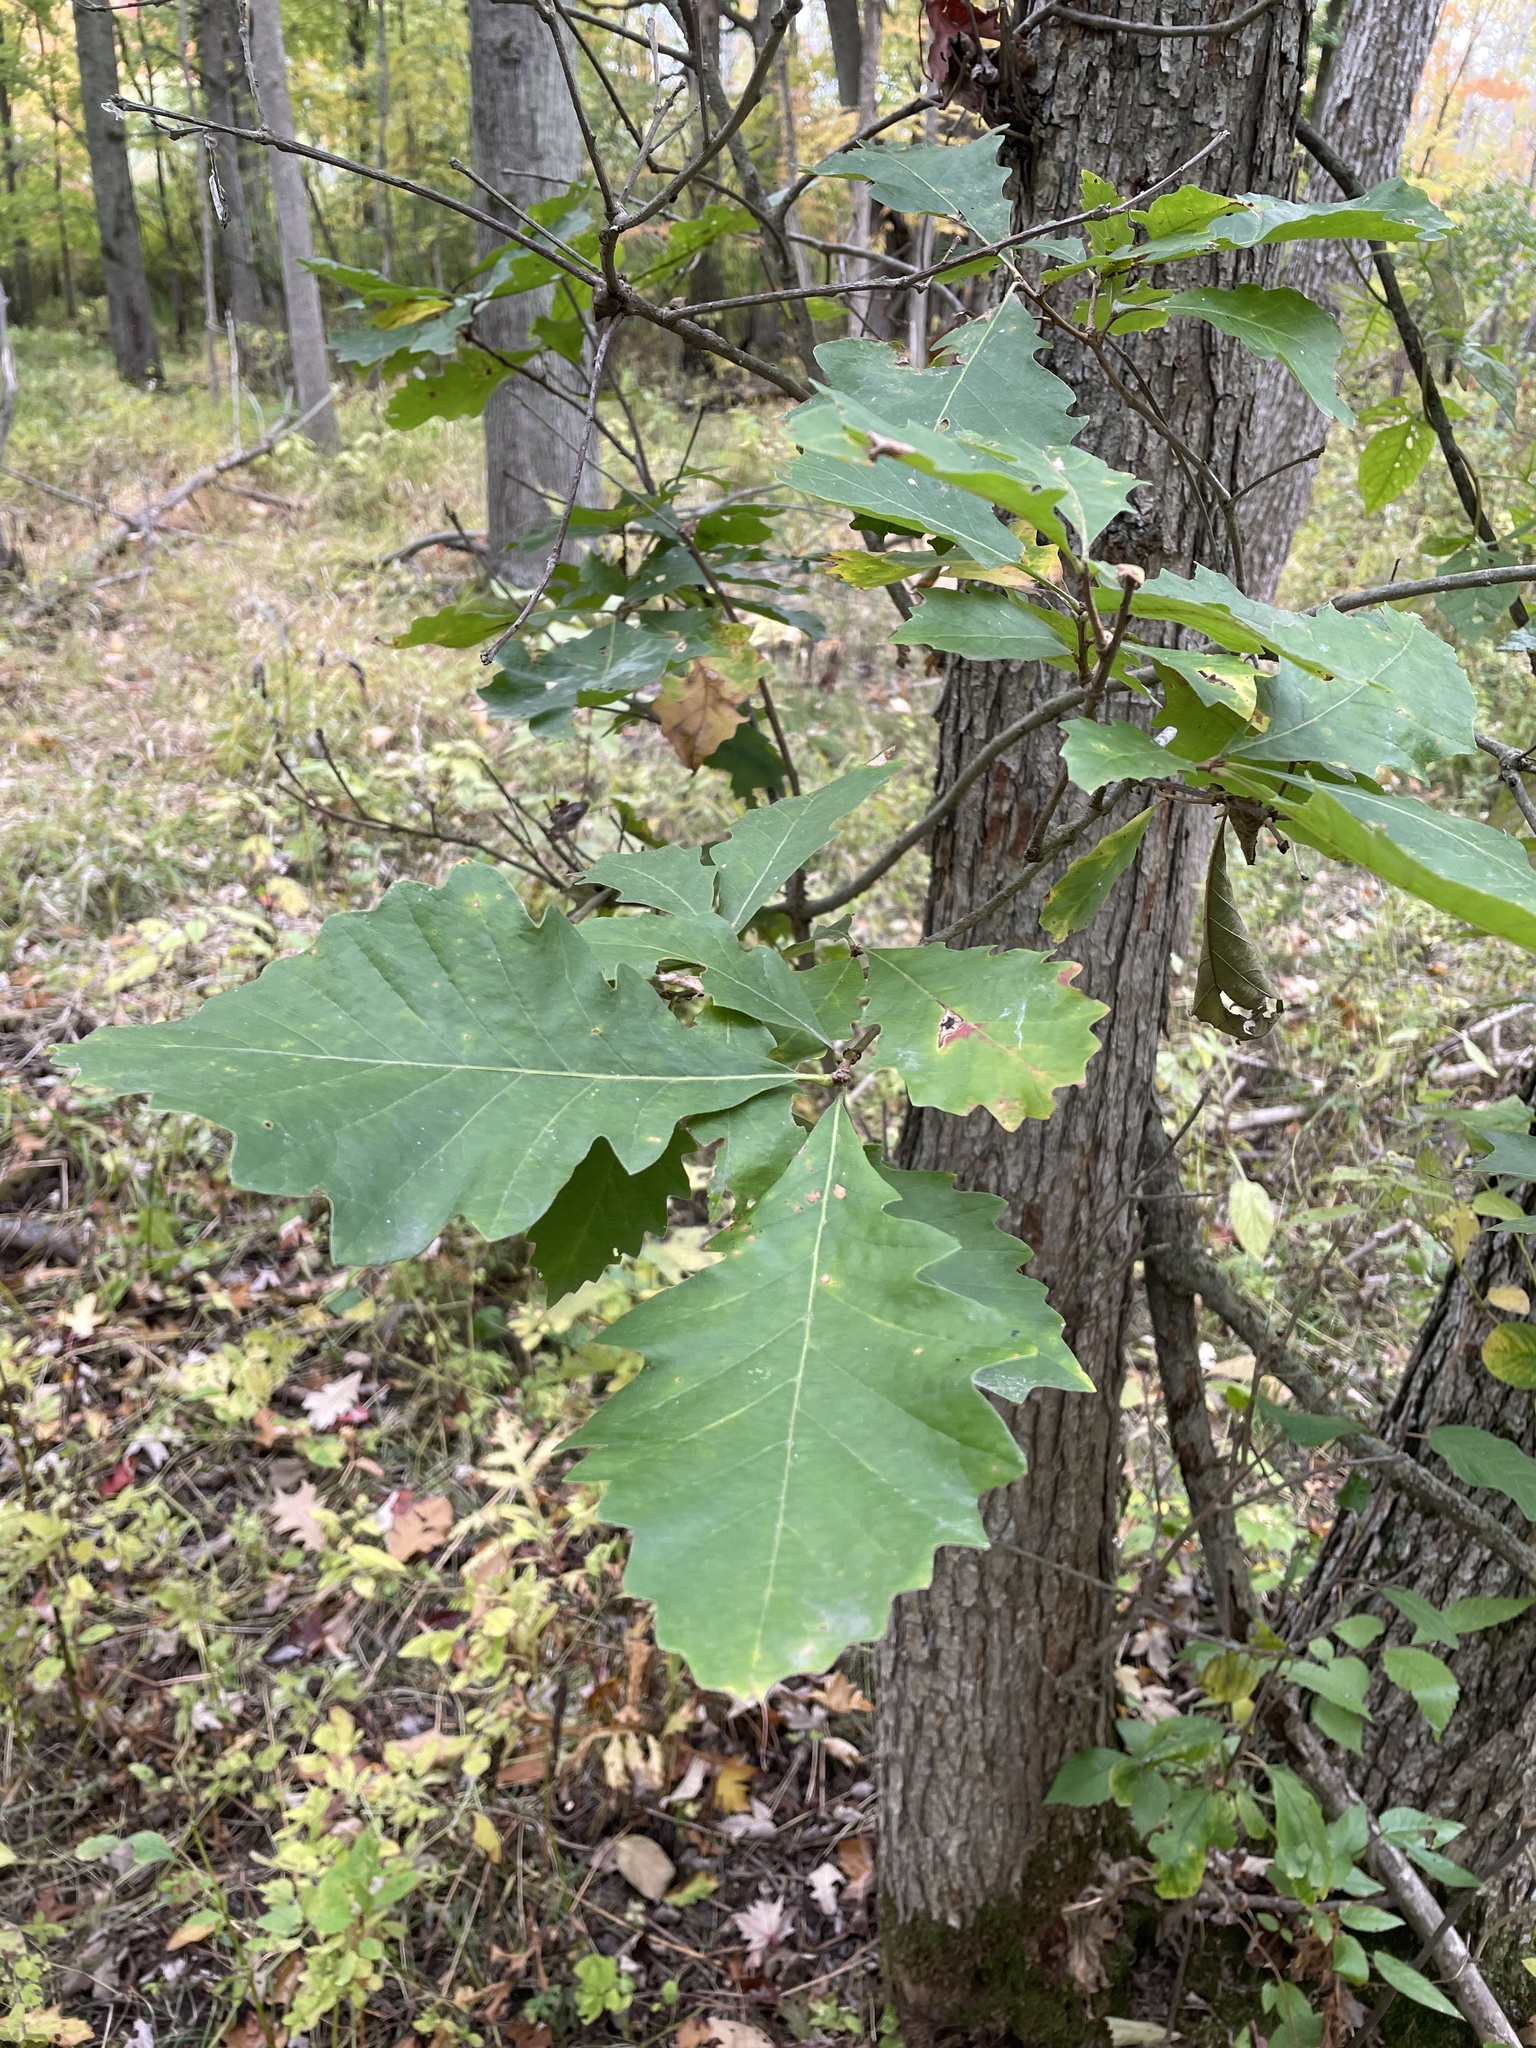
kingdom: Plantae
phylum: Tracheophyta
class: Magnoliopsida
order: Fagales
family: Fagaceae
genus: Quercus
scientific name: Quercus bicolor
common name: Swamp white oak
